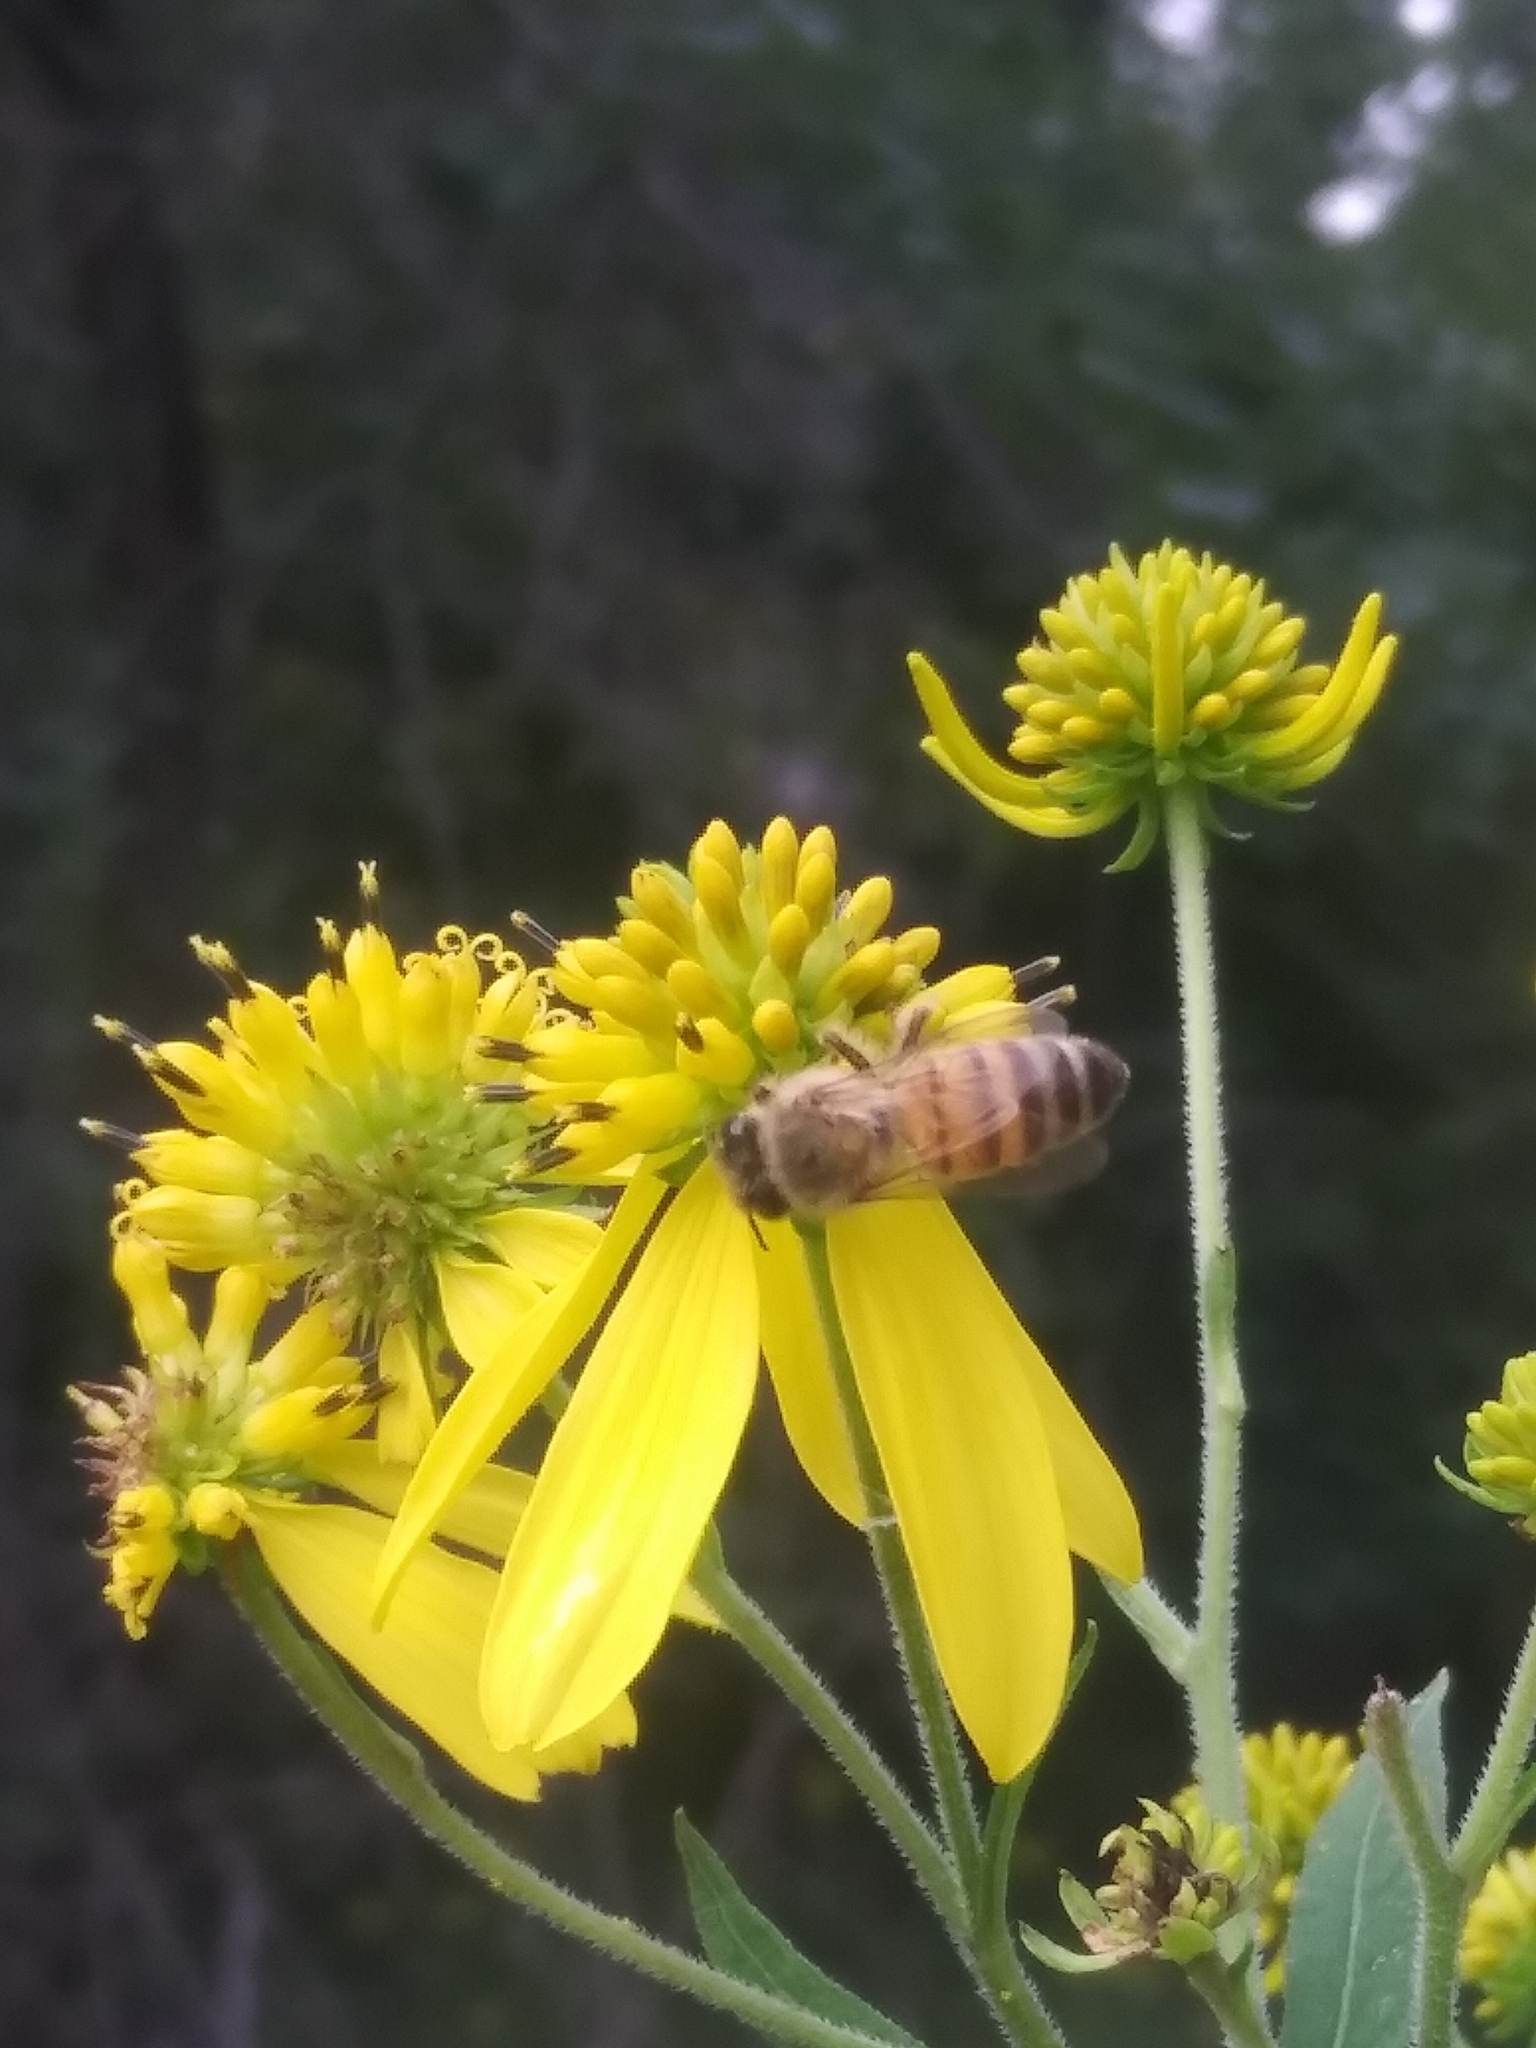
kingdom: Plantae
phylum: Tracheophyta
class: Magnoliopsida
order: Asterales
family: Asteraceae
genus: Verbesina
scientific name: Verbesina alternifolia
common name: Wingstem
